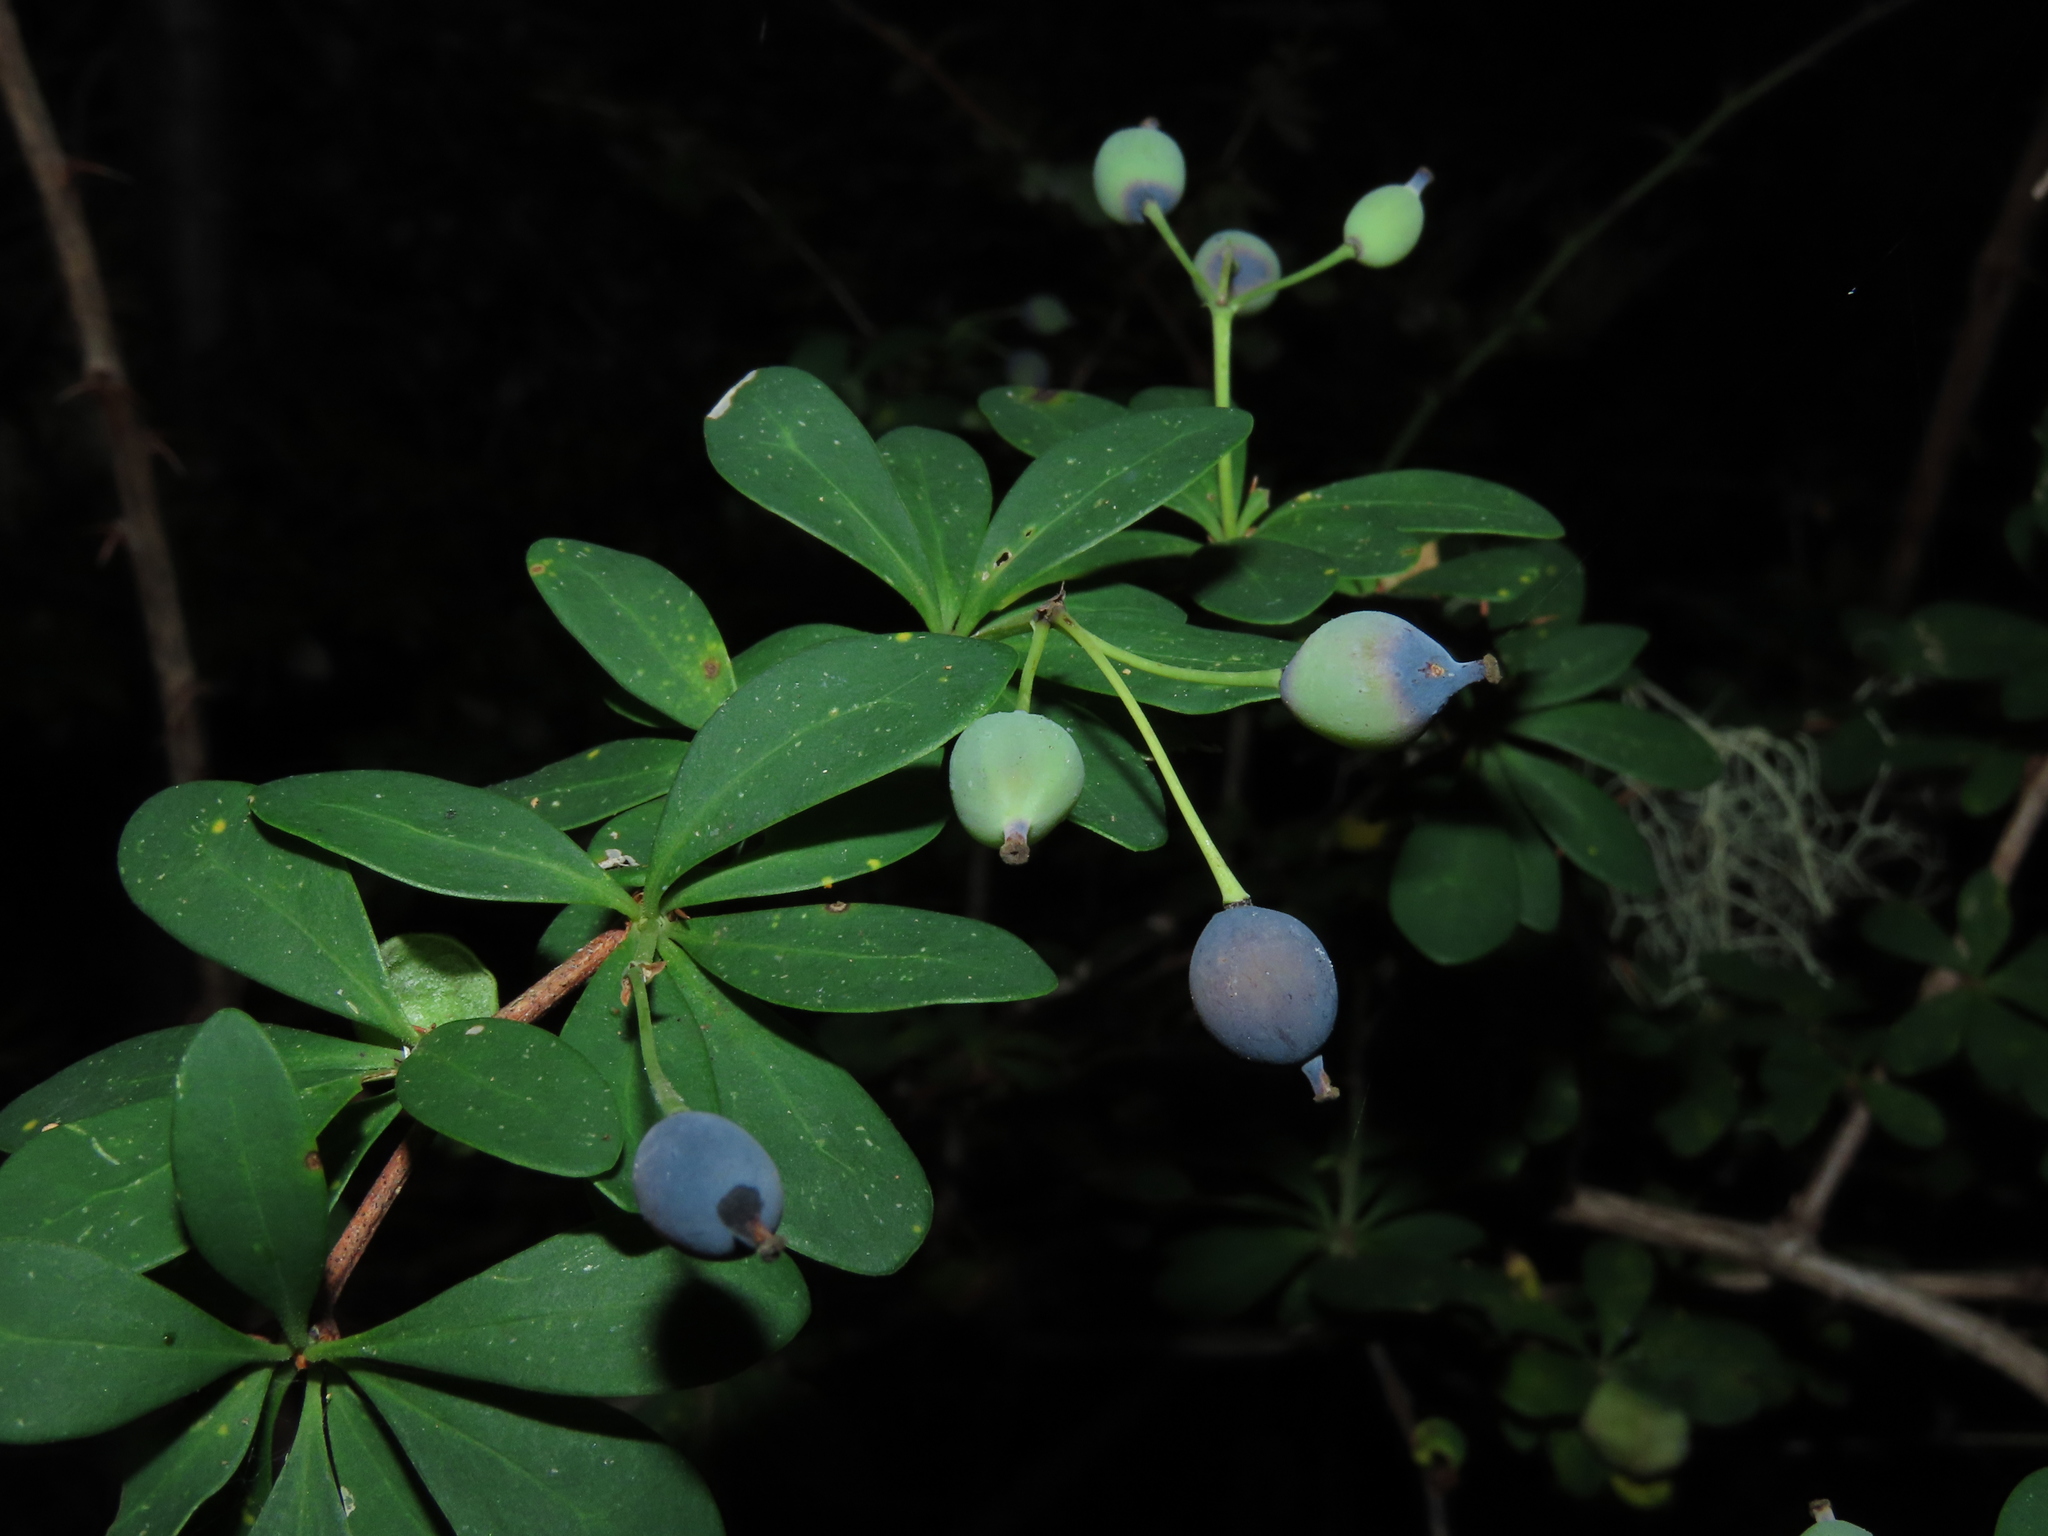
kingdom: Plantae
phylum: Tracheophyta
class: Magnoliopsida
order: Ranunculales
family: Berberidaceae
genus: Berberis
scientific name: Berberis montana
